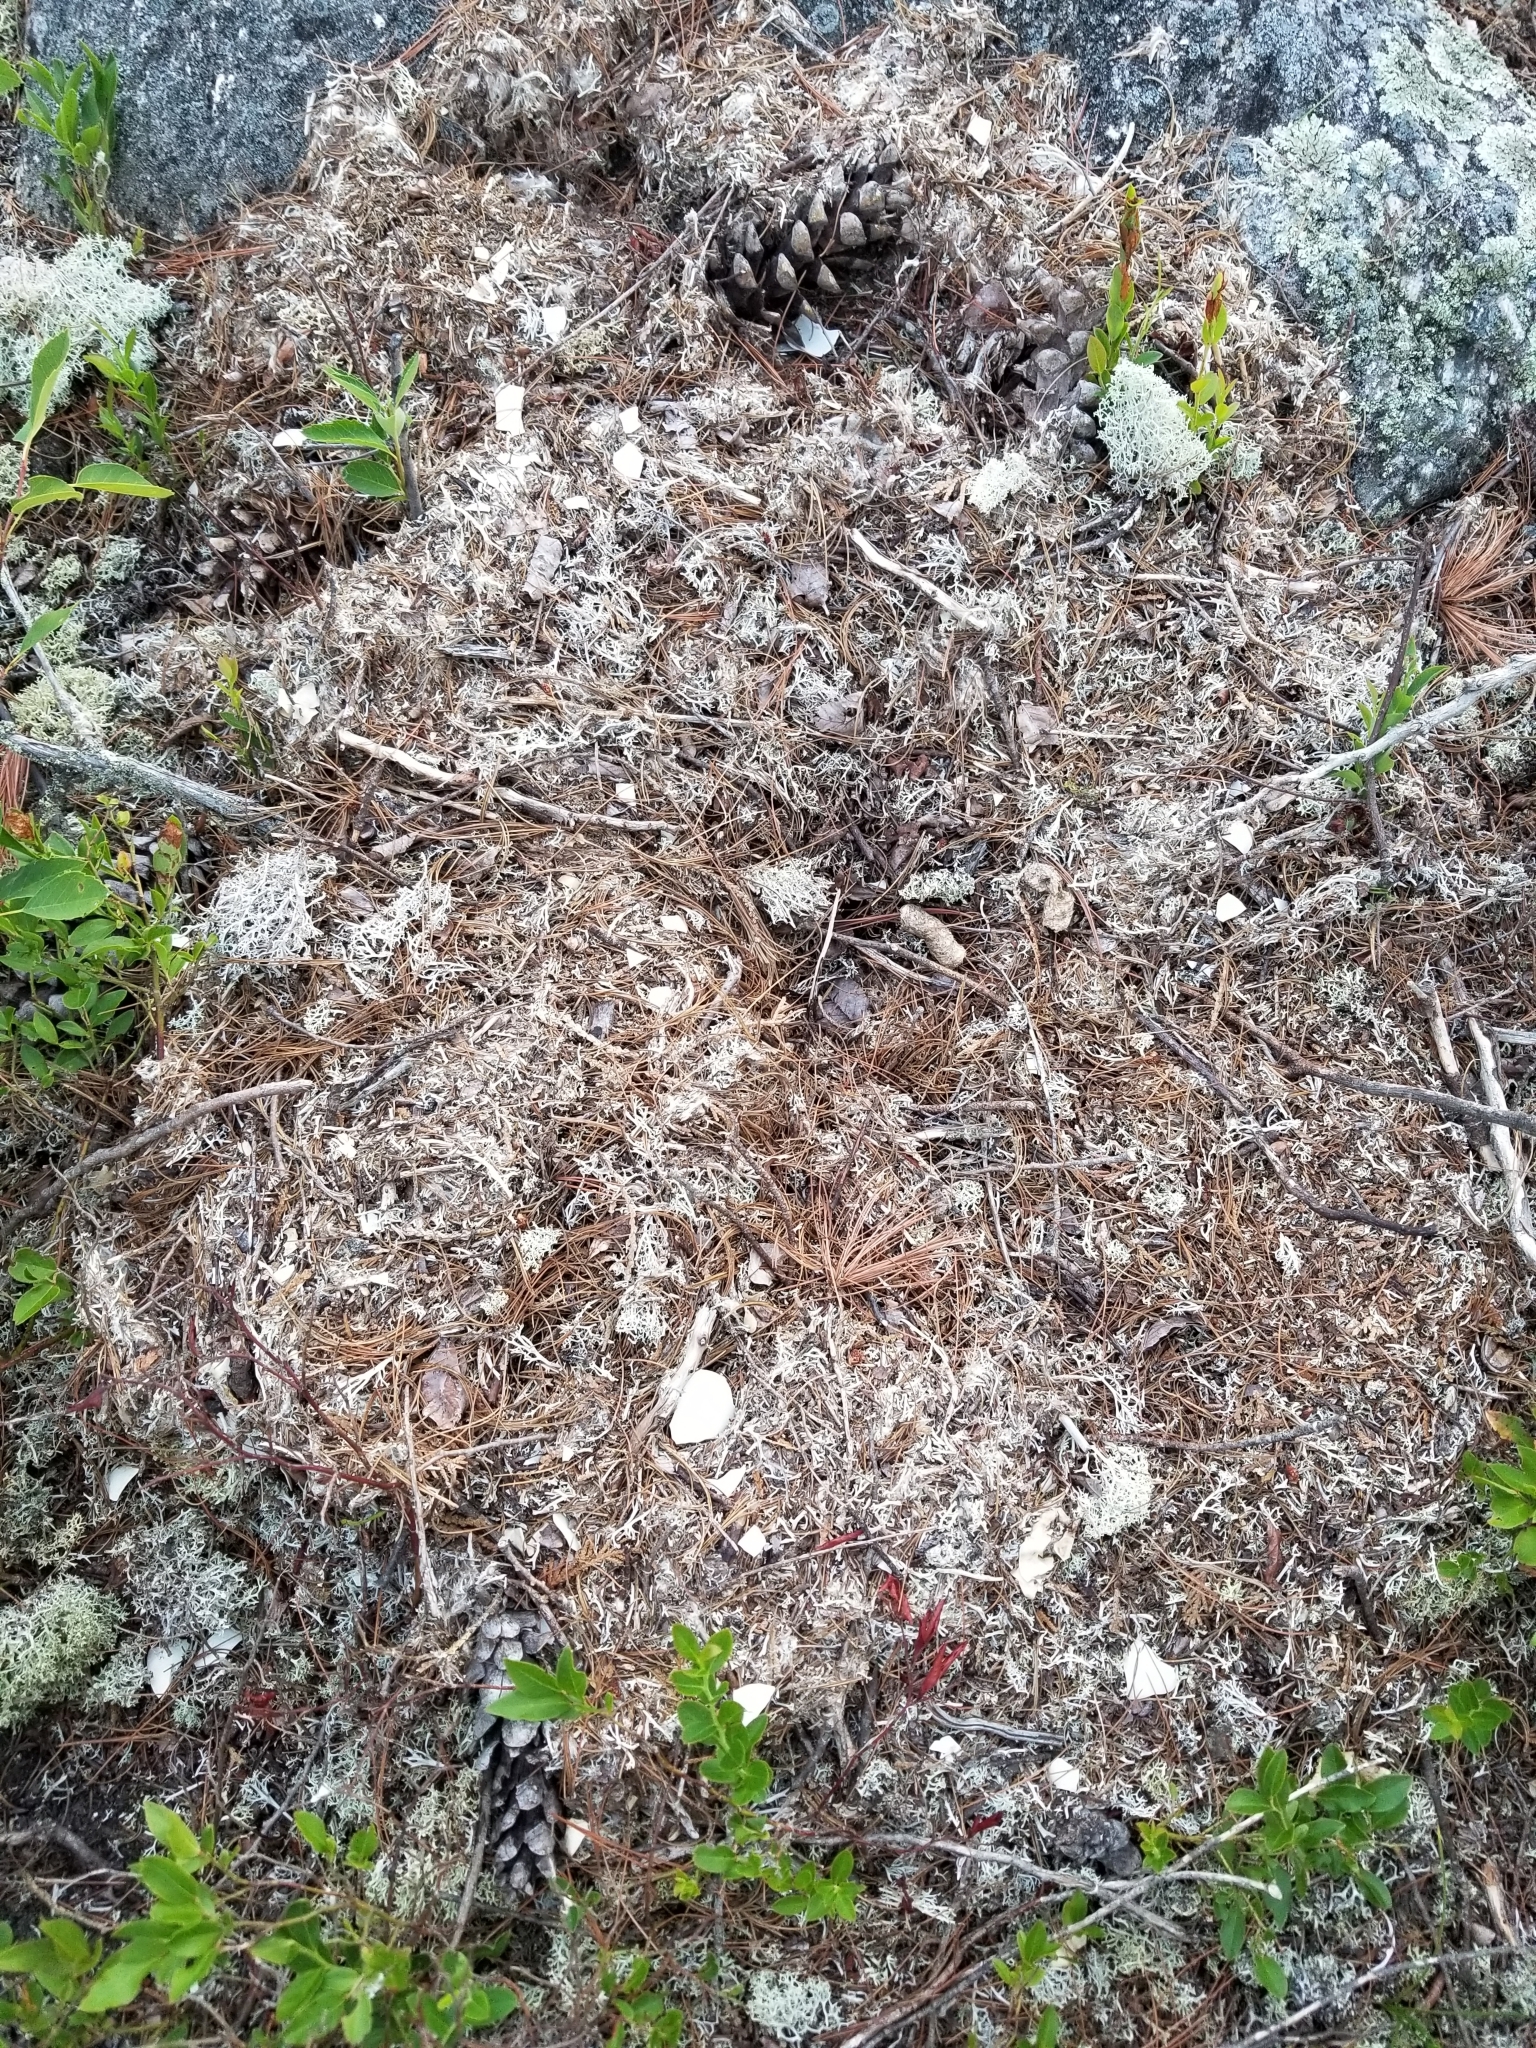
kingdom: Animalia
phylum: Chordata
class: Aves
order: Anseriformes
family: Anatidae
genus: Branta
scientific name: Branta canadensis
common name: Canada goose
